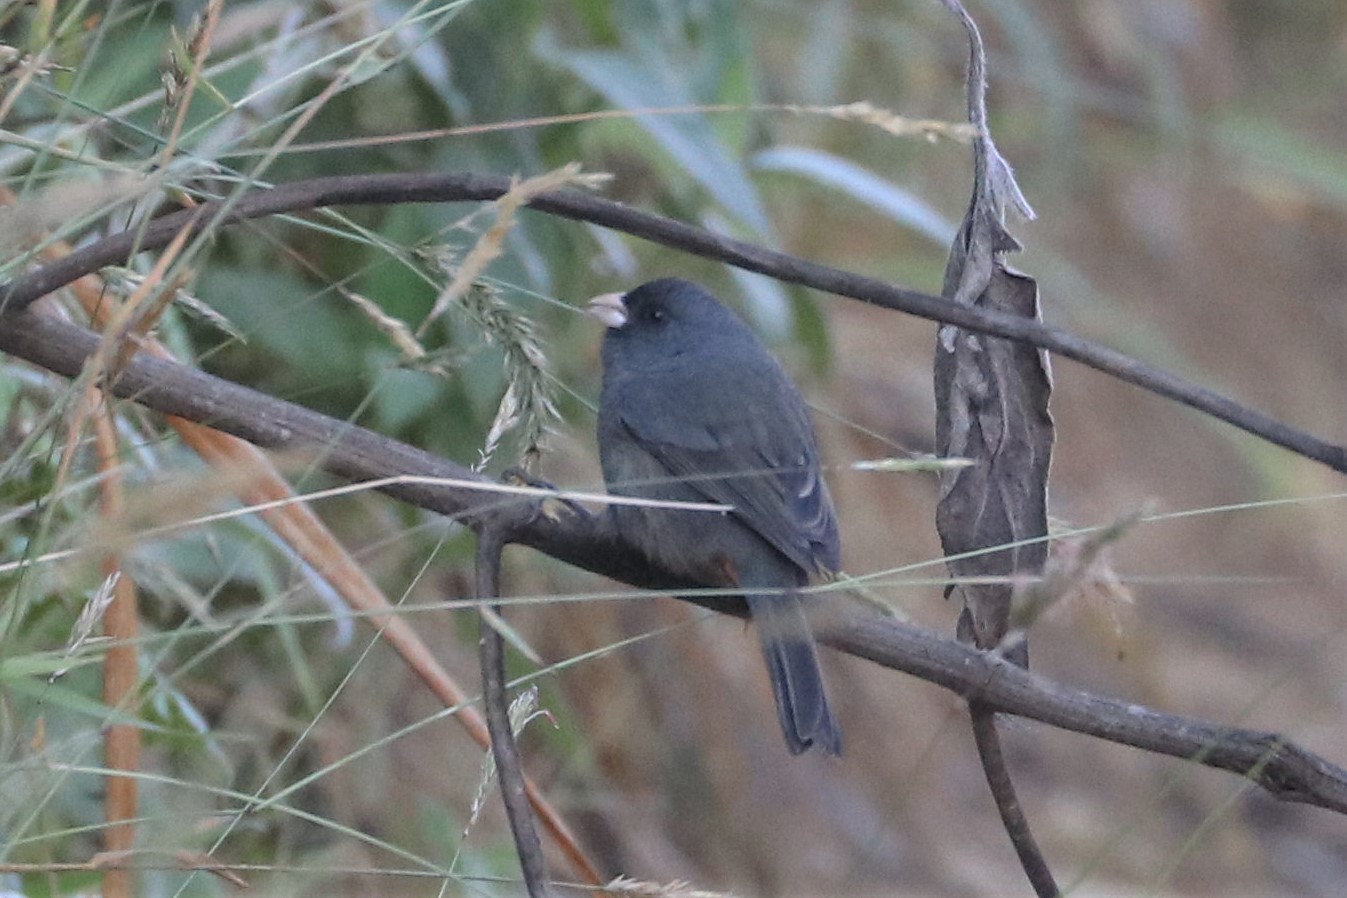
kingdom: Animalia
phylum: Chordata
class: Aves
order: Passeriformes
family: Thraupidae
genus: Catamenia
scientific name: Catamenia homochroa
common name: Paramo seedeater
